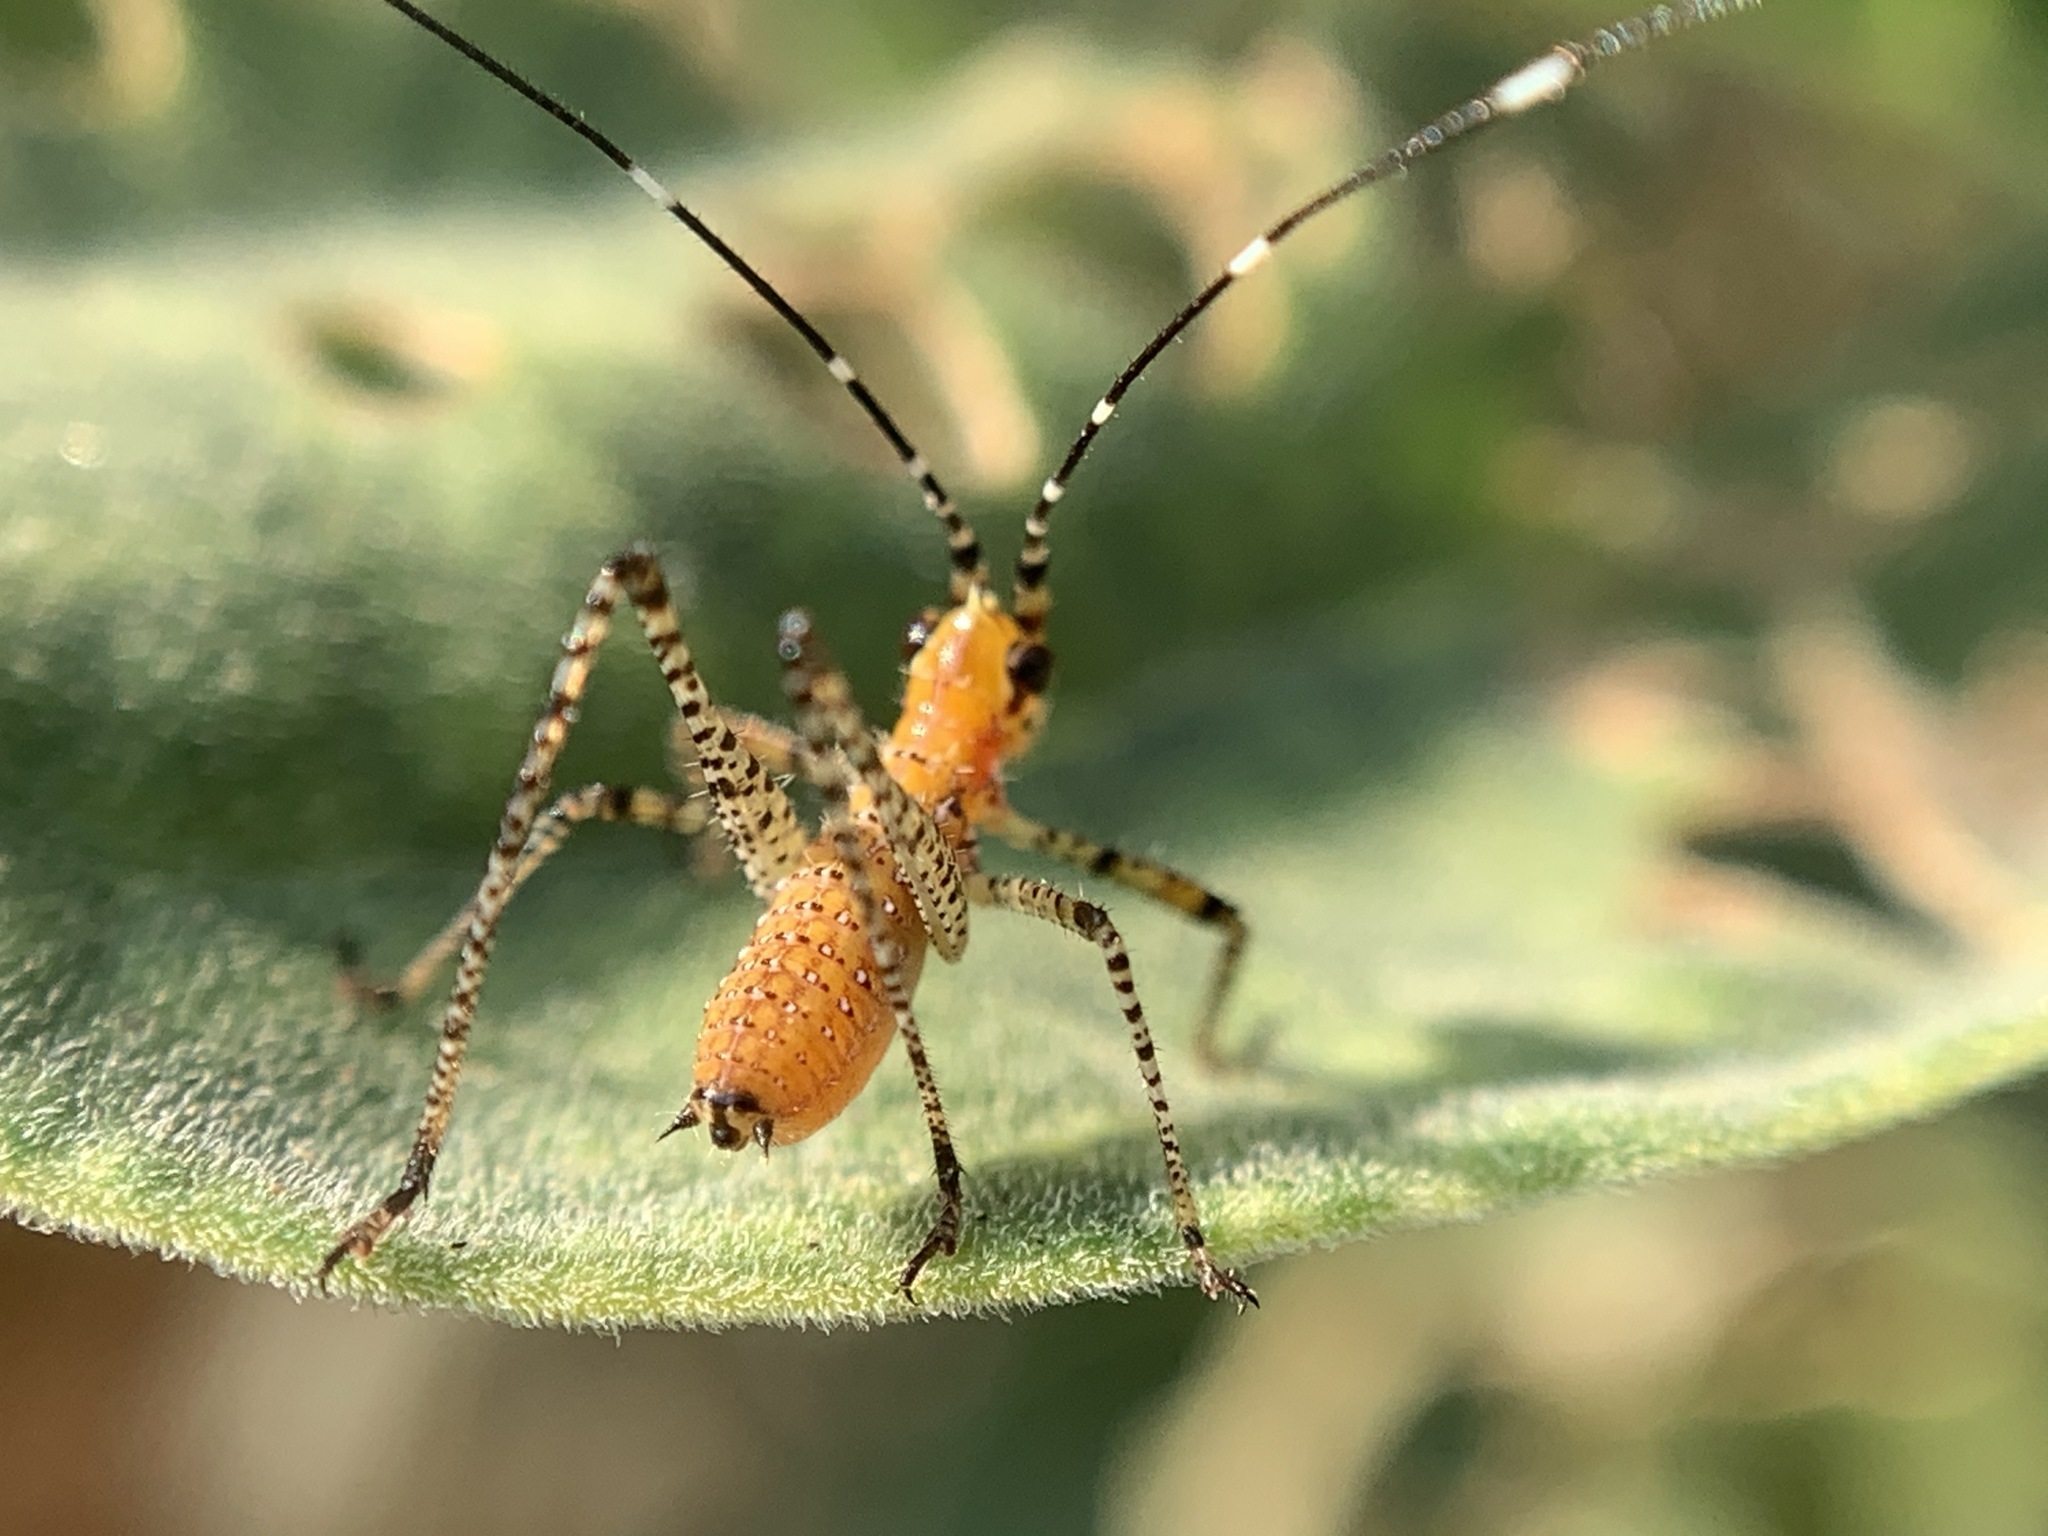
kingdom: Animalia
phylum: Arthropoda
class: Insecta
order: Orthoptera
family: Tettigoniidae
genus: Scudderia
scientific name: Scudderia
